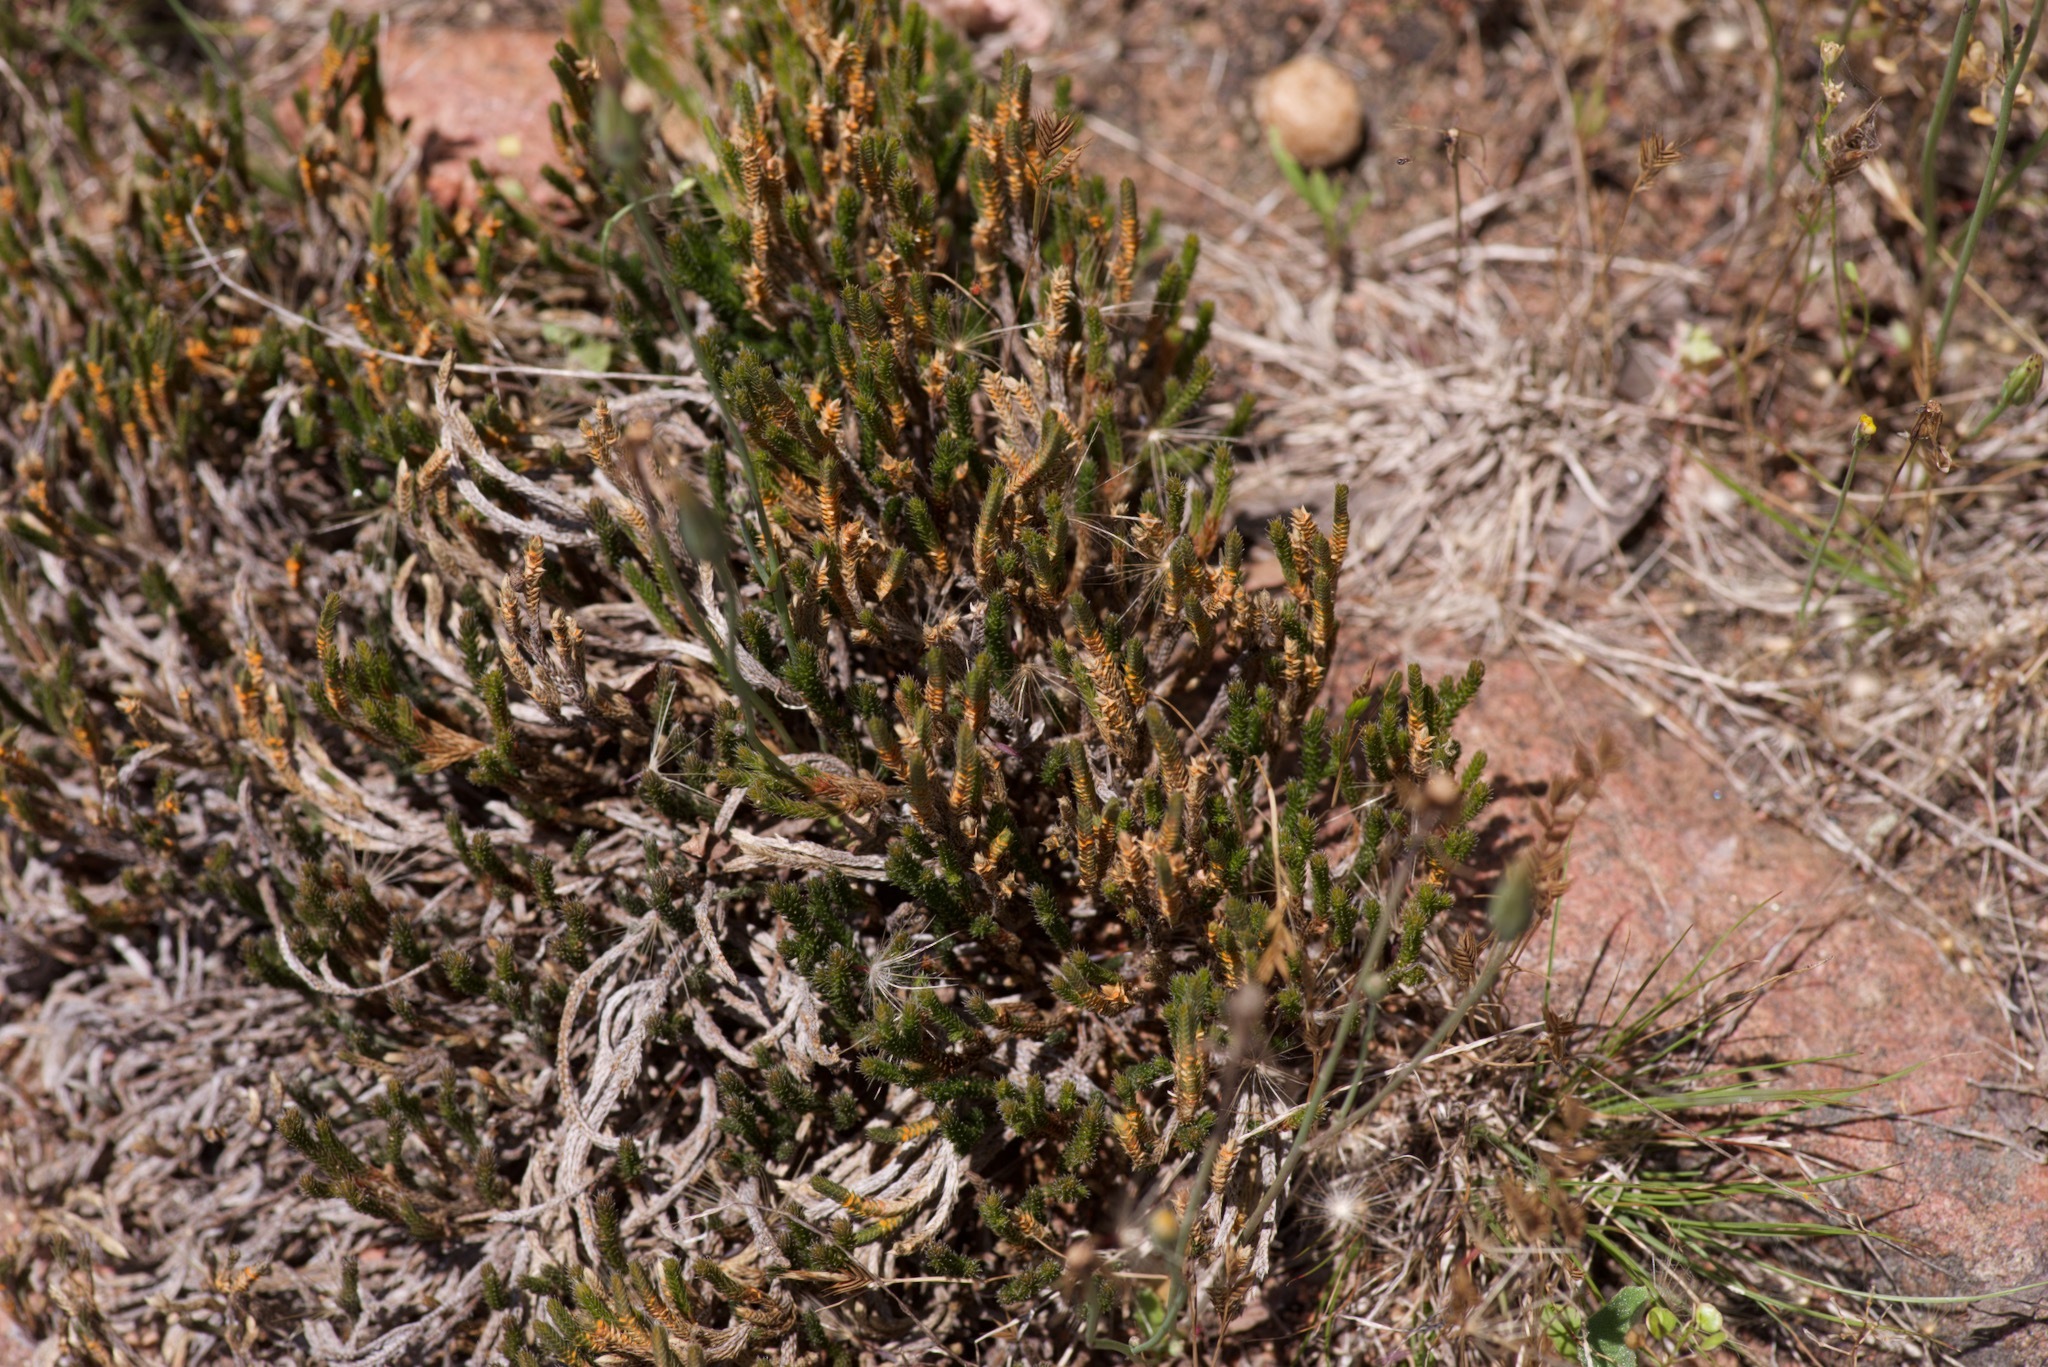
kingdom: Plantae
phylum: Tracheophyta
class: Lycopodiopsida
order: Selaginellales
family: Selaginellaceae
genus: Selaginella
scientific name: Selaginella corallina
